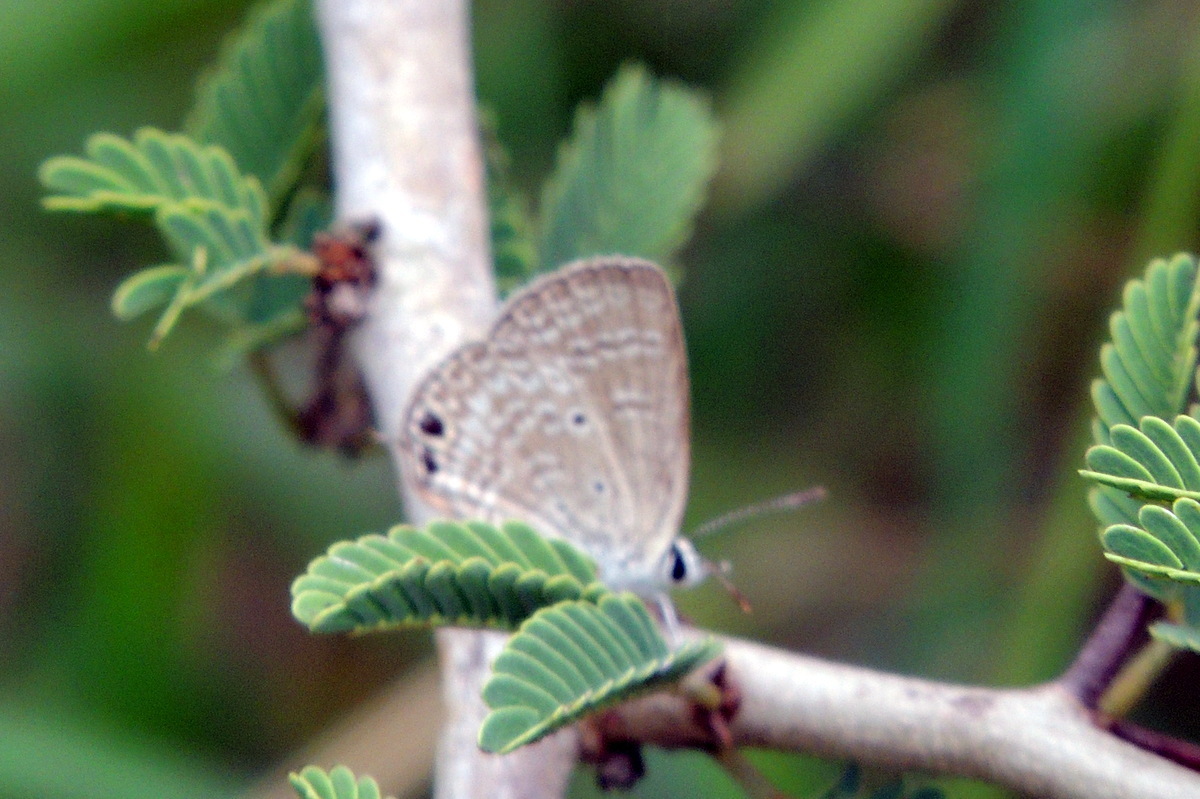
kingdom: Animalia
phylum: Arthropoda
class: Insecta
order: Lepidoptera
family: Lycaenidae
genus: Chilades
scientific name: Chilades parrhasius
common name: Small cupid
